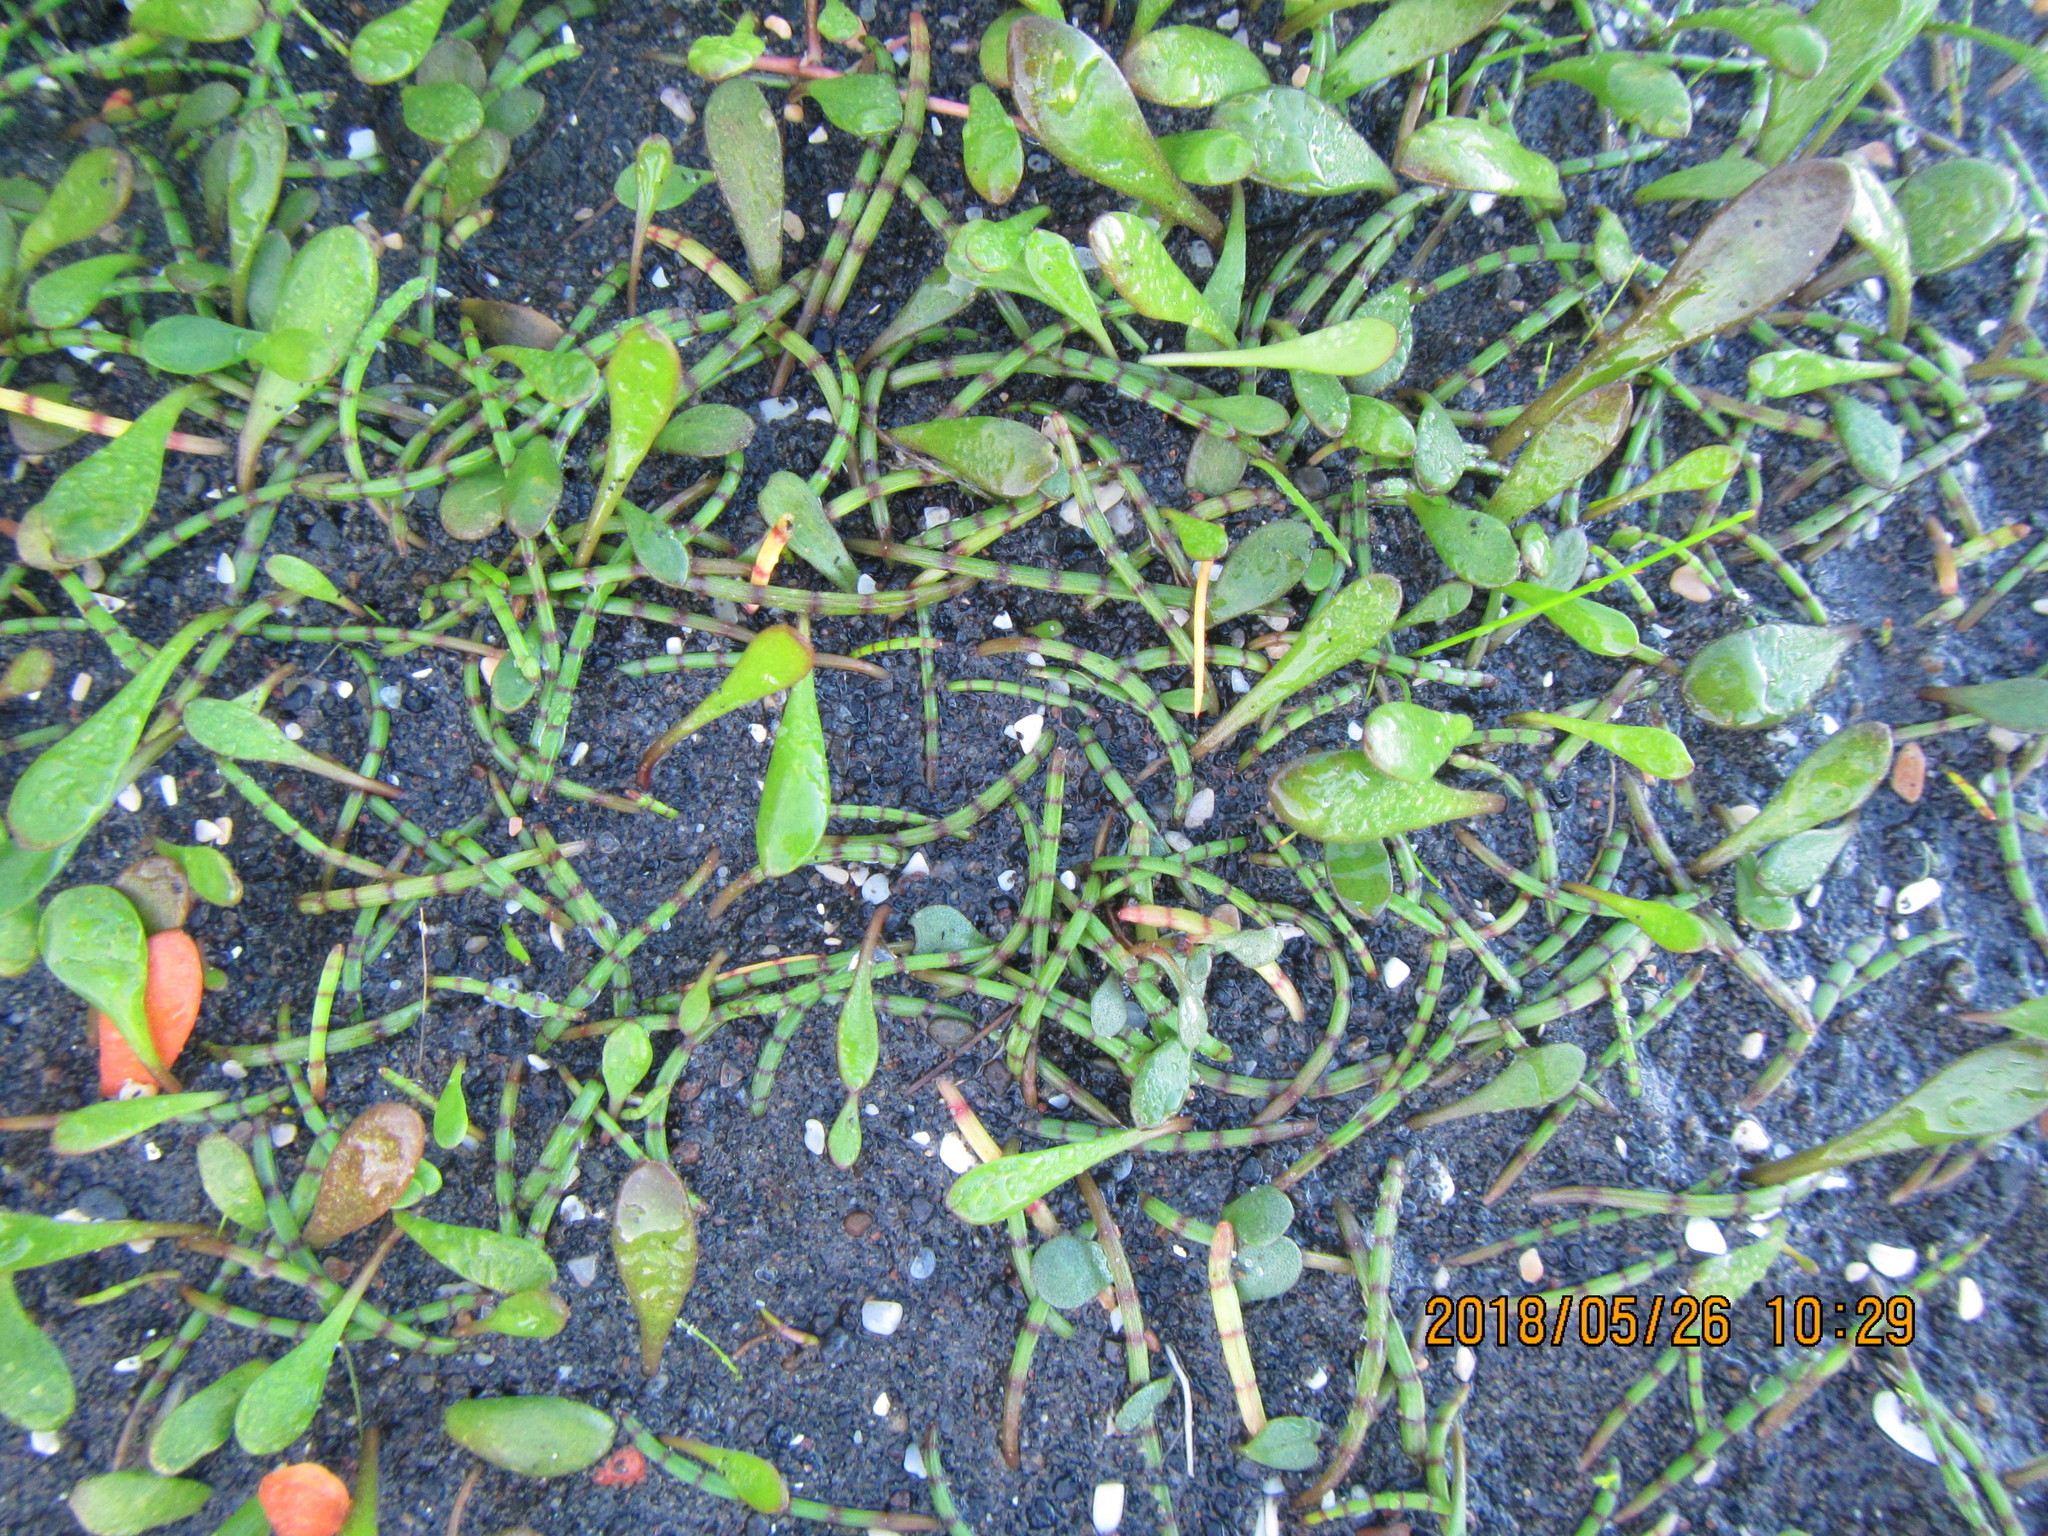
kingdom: Plantae
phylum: Tracheophyta
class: Magnoliopsida
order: Asterales
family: Goodeniaceae
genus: Goodenia
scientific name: Goodenia radicans
